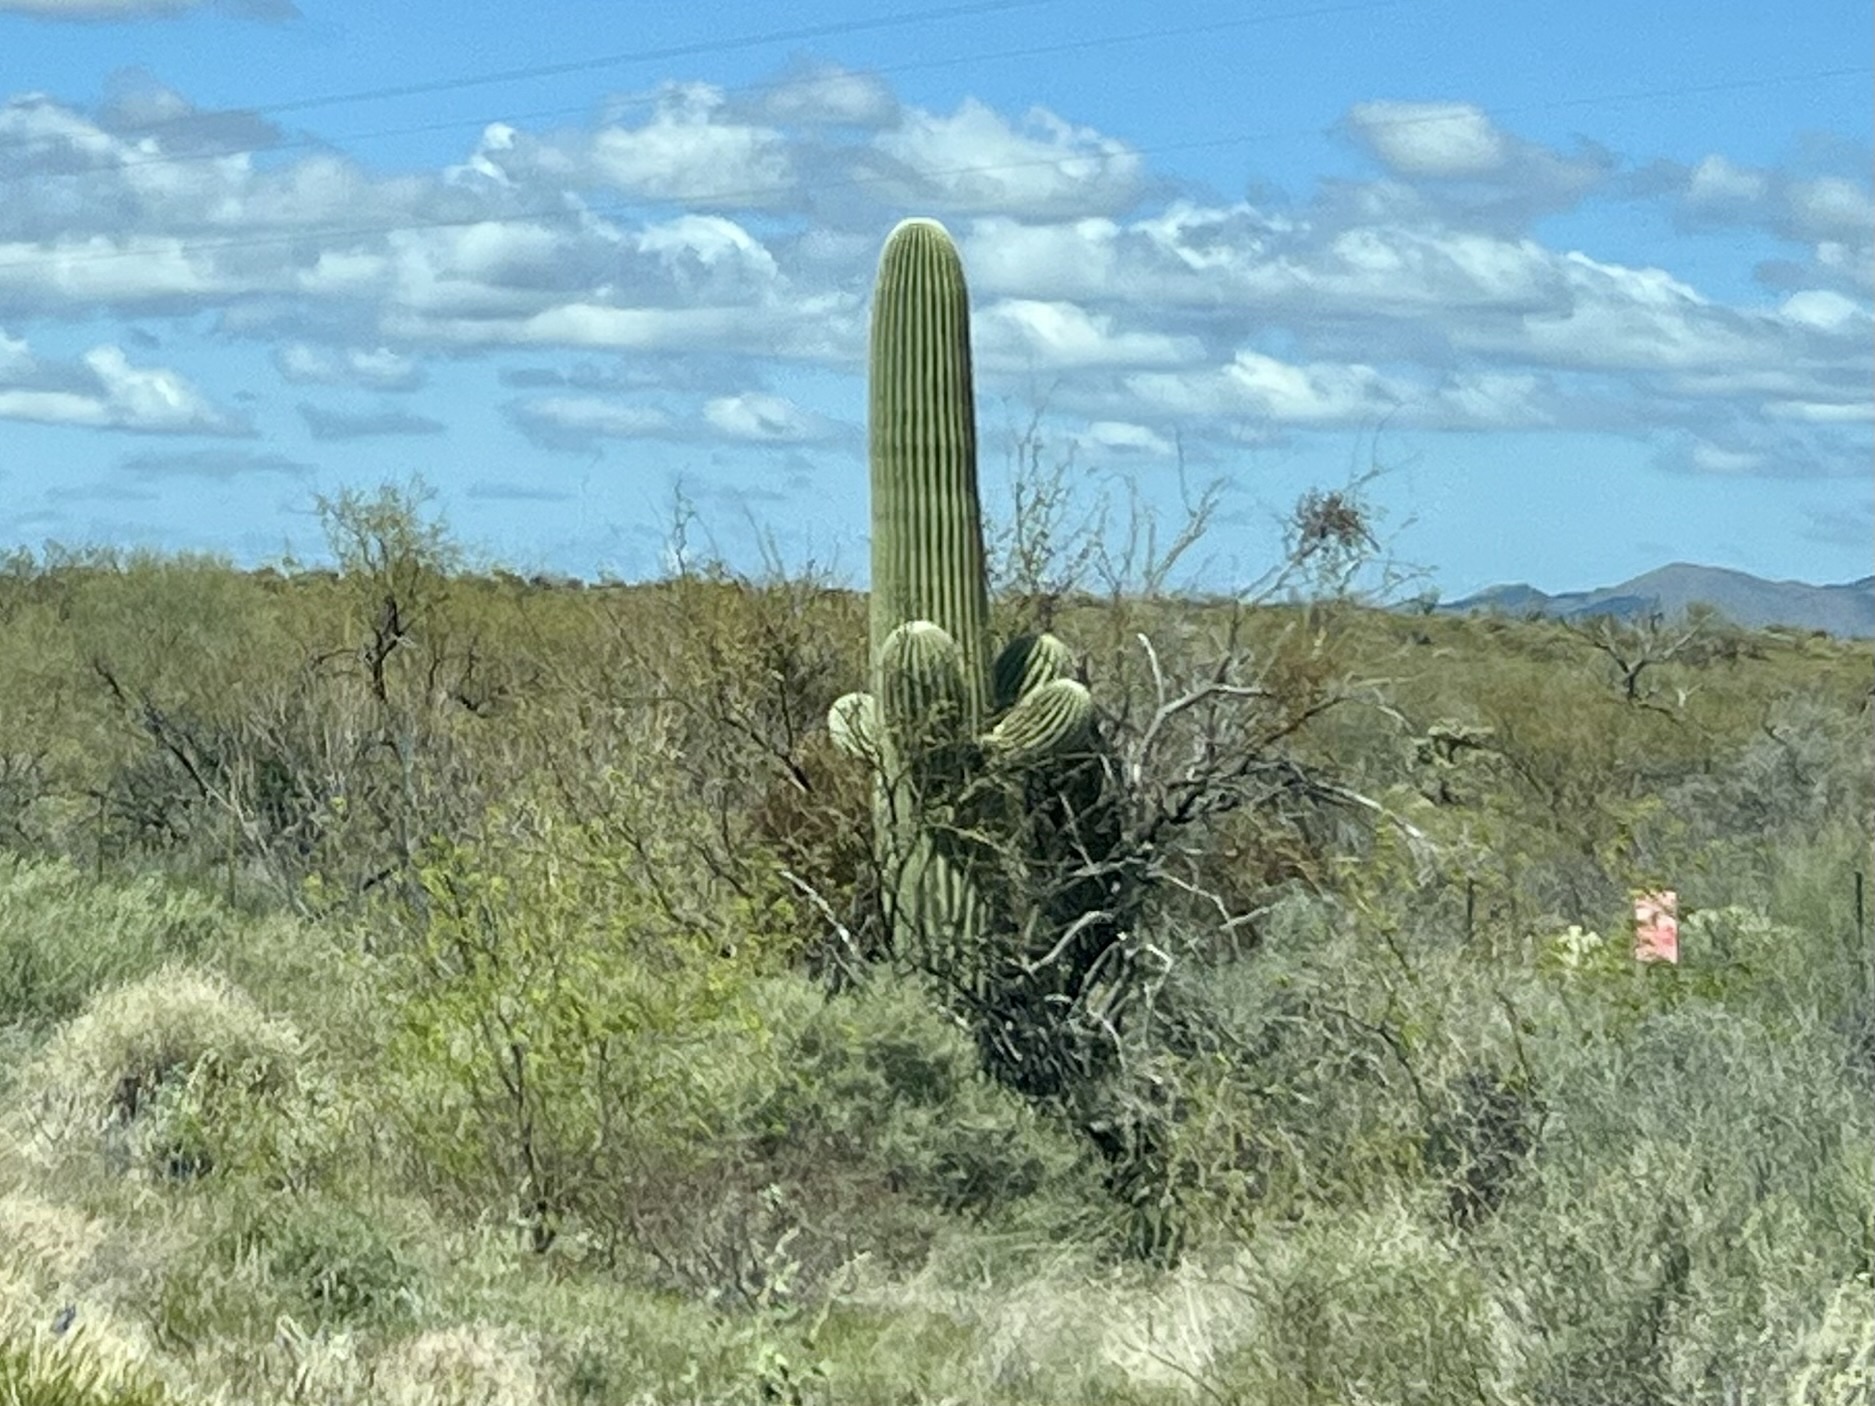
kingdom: Plantae
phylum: Tracheophyta
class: Magnoliopsida
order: Caryophyllales
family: Cactaceae
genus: Carnegiea
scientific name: Carnegiea gigantea
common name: Saguaro
